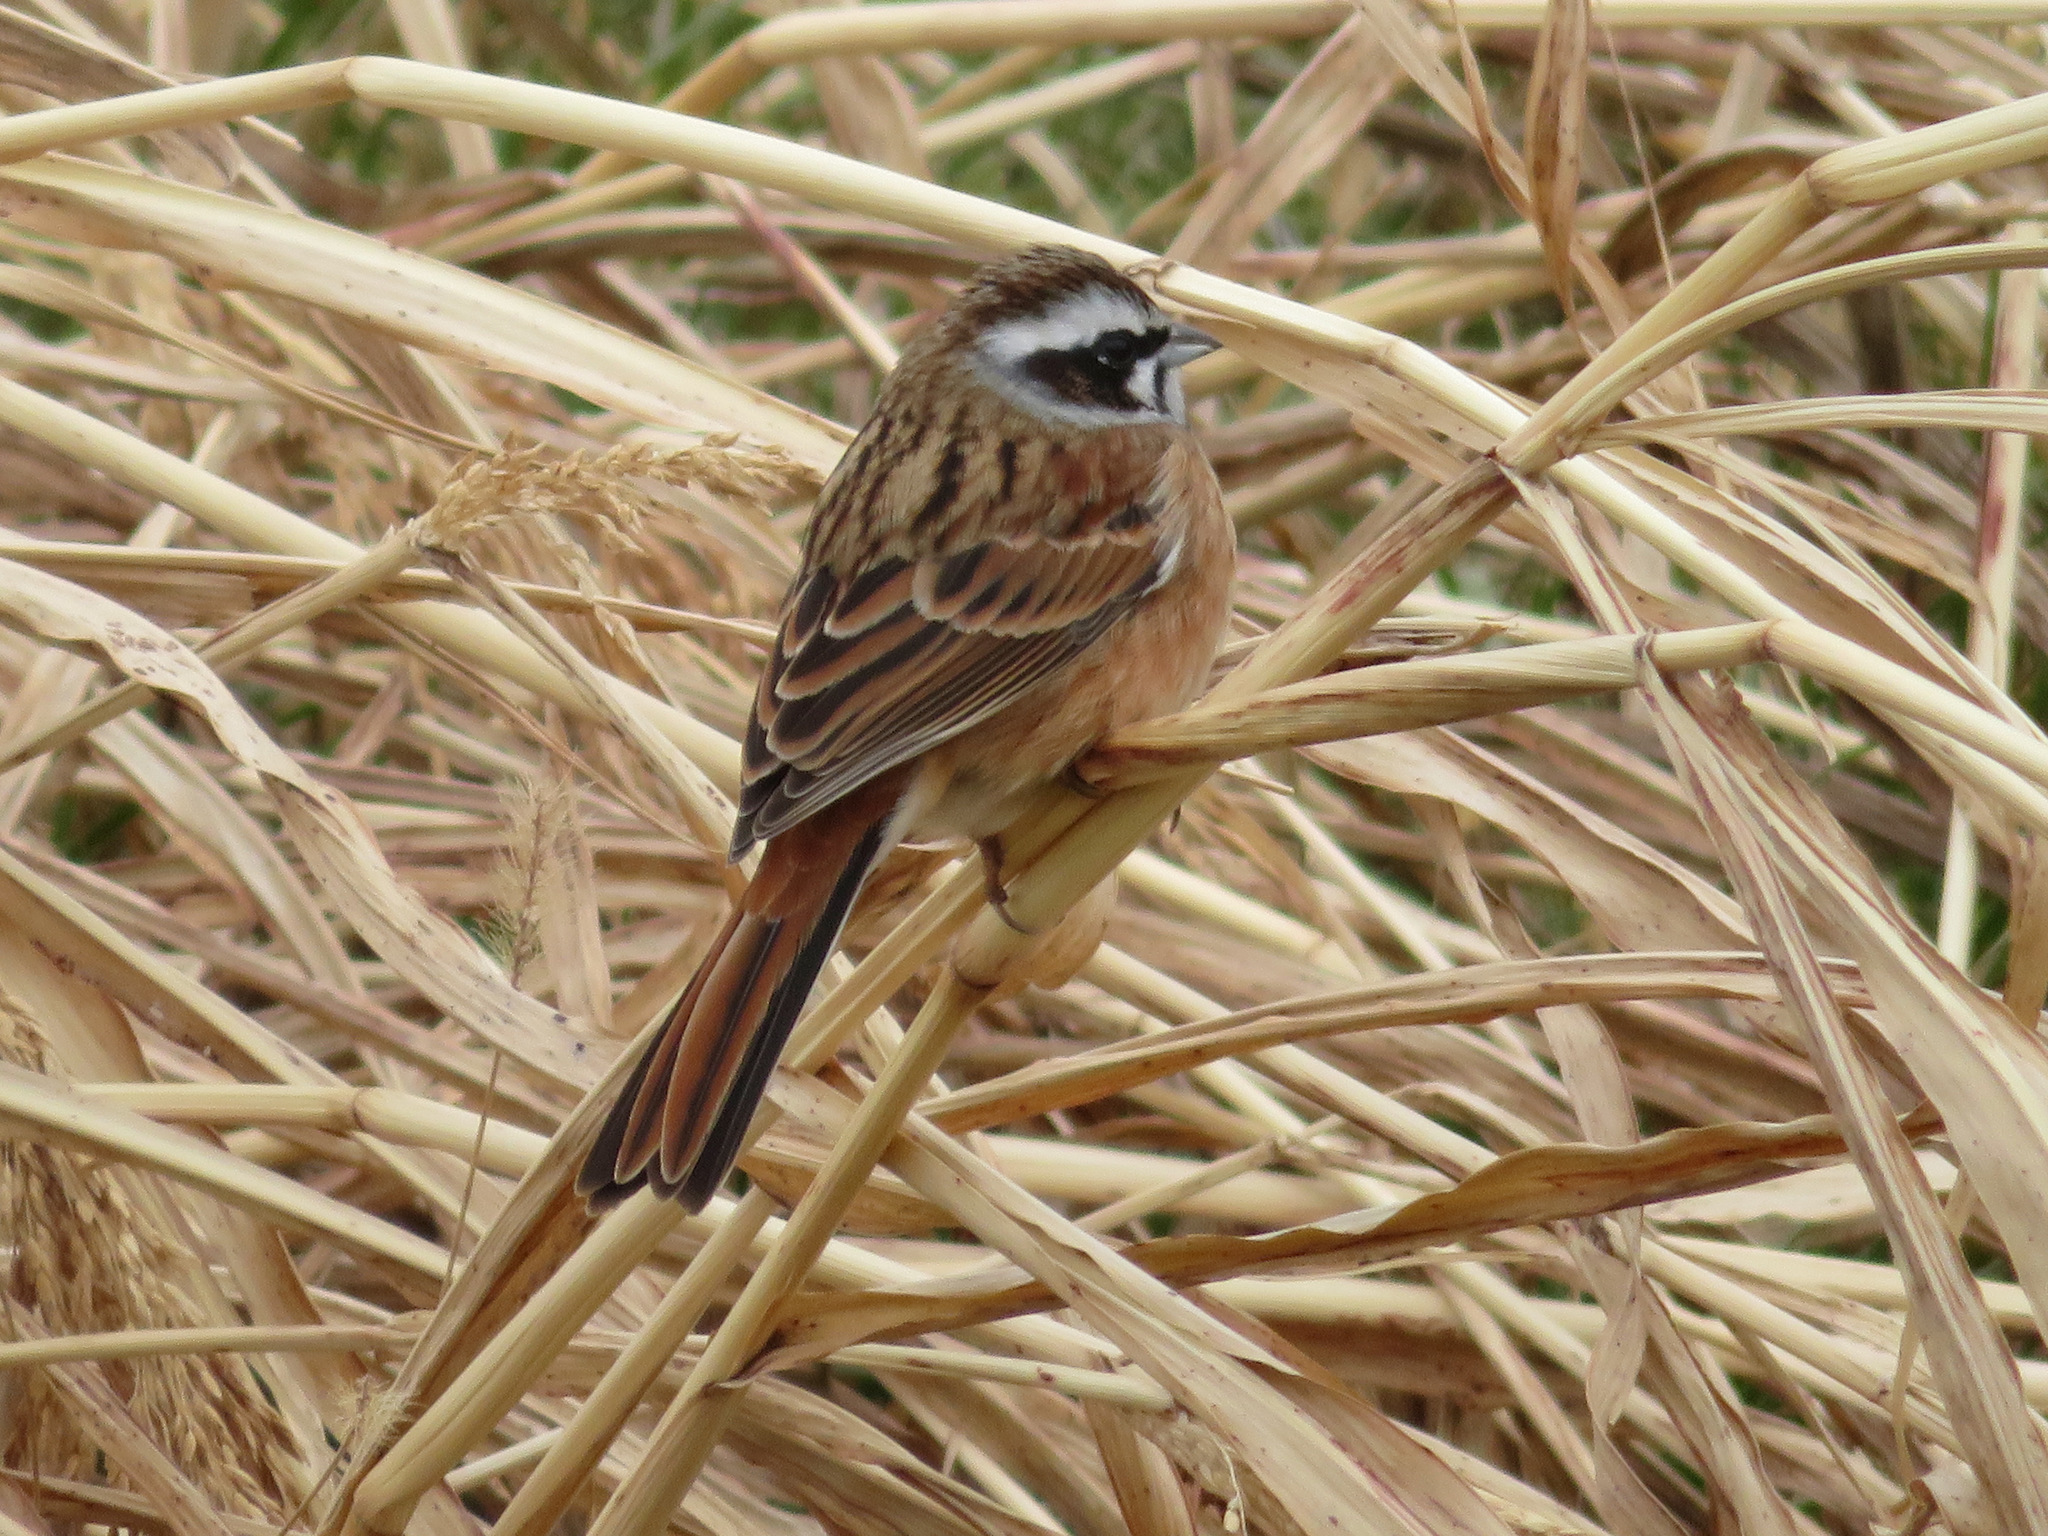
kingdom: Animalia
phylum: Chordata
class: Aves
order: Passeriformes
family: Emberizidae
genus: Emberiza
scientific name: Emberiza cioides
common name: Meadow bunting
